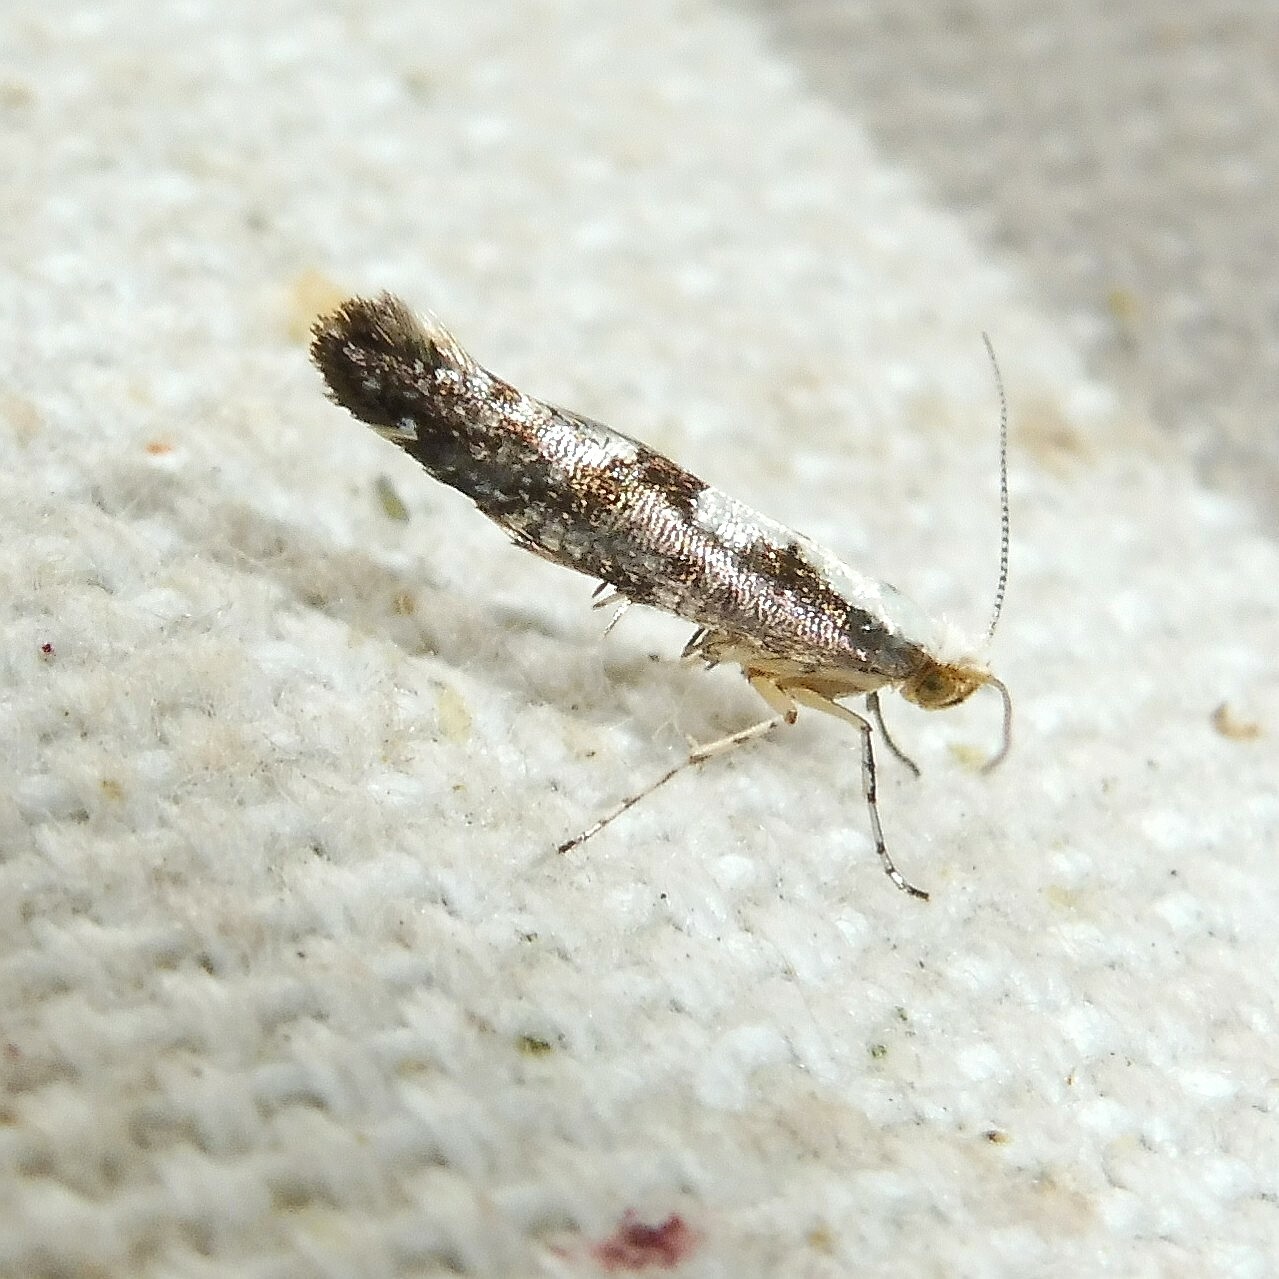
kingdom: Animalia
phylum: Arthropoda
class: Insecta
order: Lepidoptera
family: Argyresthiidae
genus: Argyresthia
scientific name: Argyresthia conjugella
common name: Apple fruit moth
